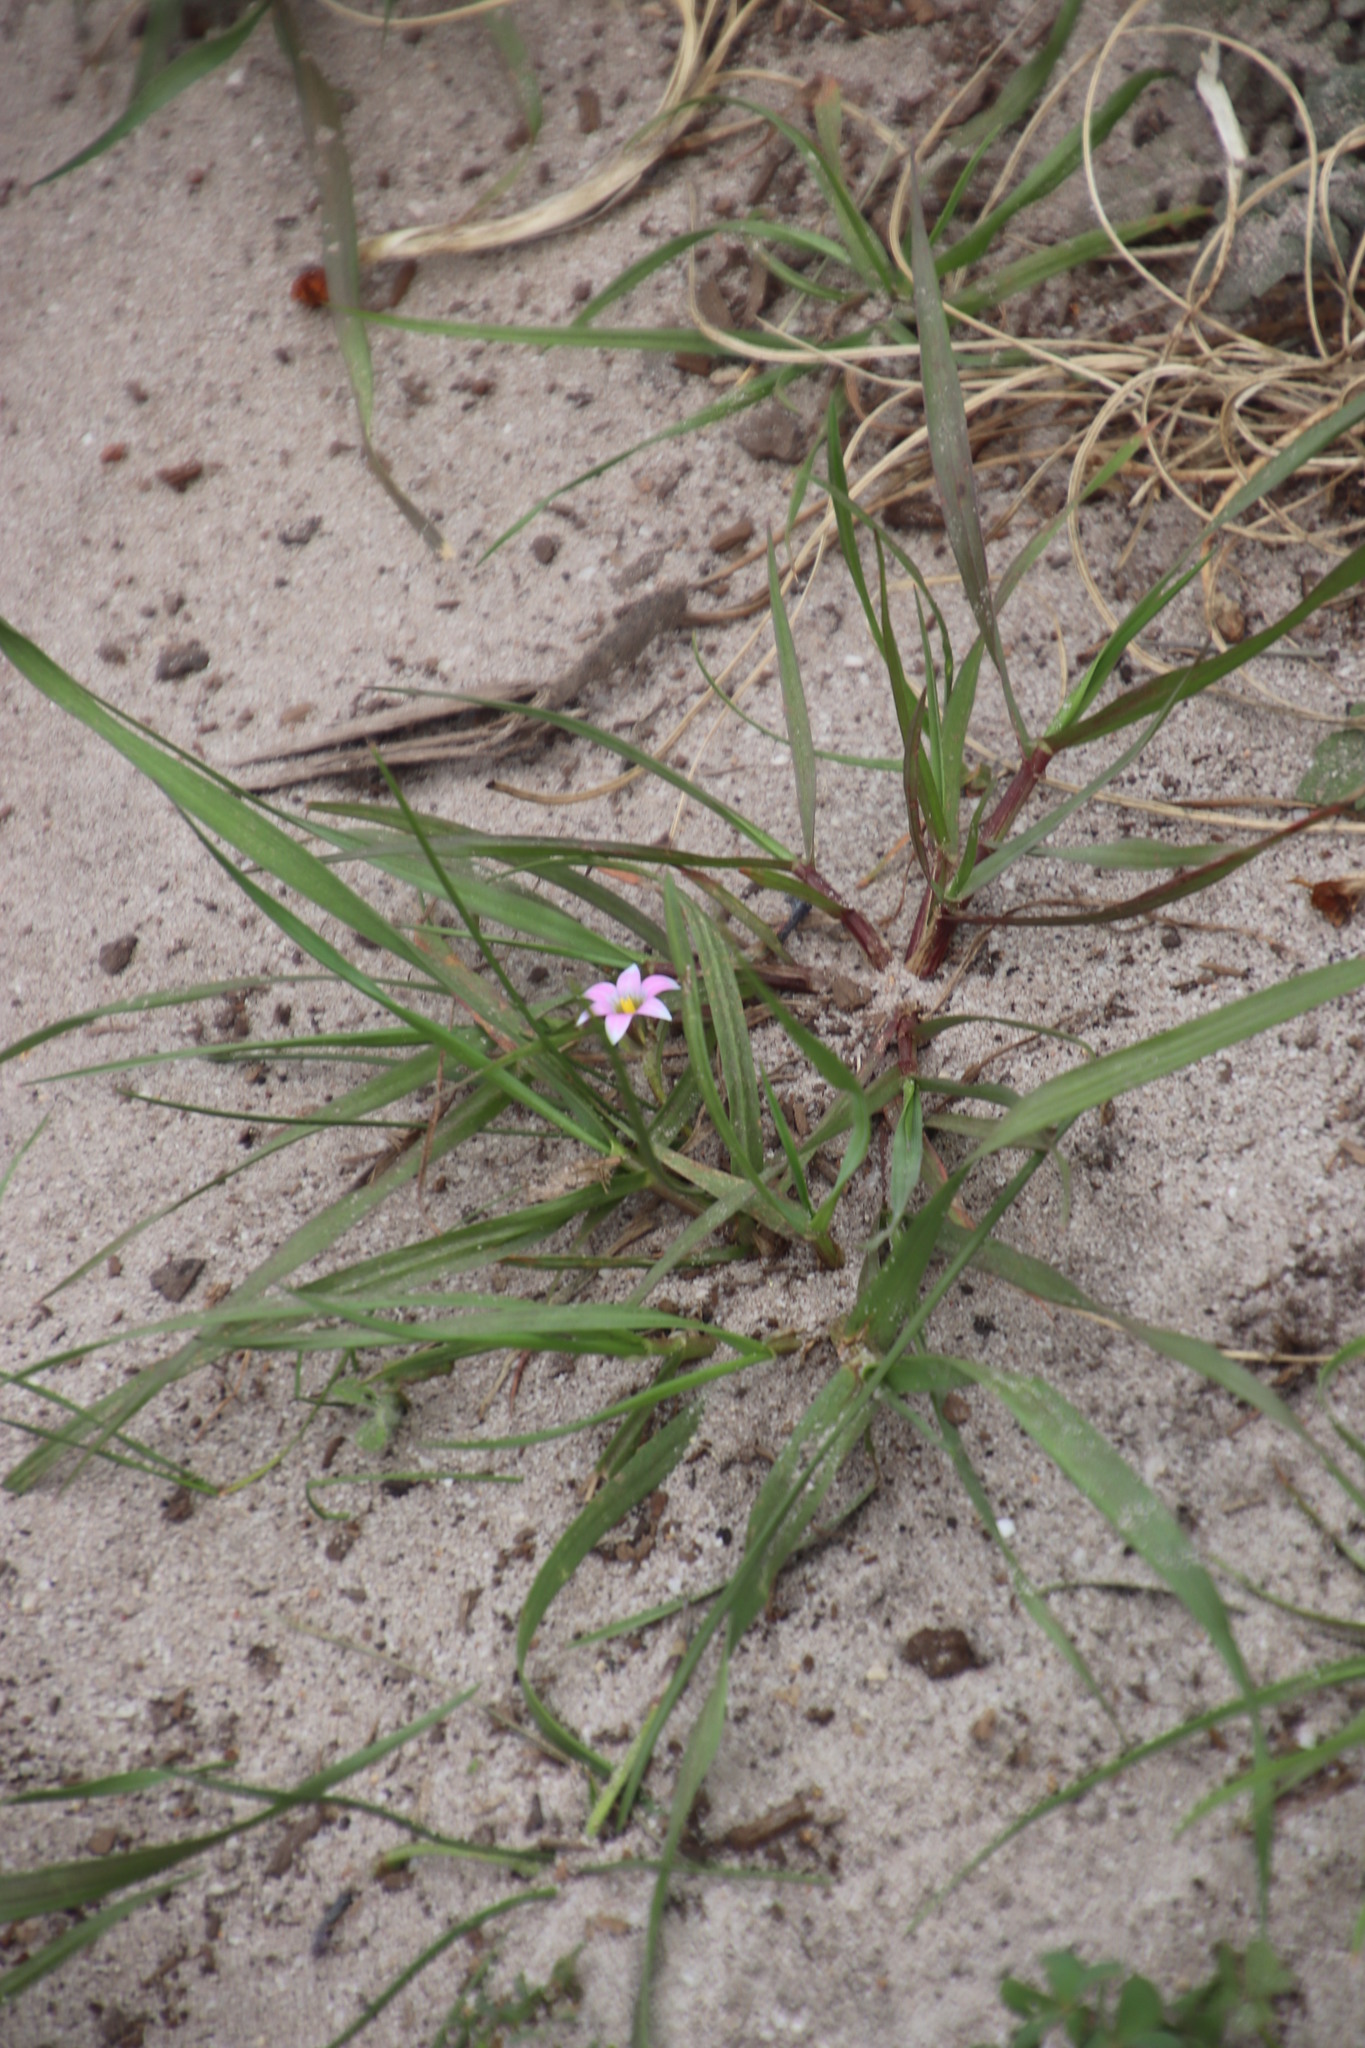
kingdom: Plantae
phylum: Tracheophyta
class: Liliopsida
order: Asparagales
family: Iridaceae
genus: Romulea
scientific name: Romulea rosea
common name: Oniongrass
